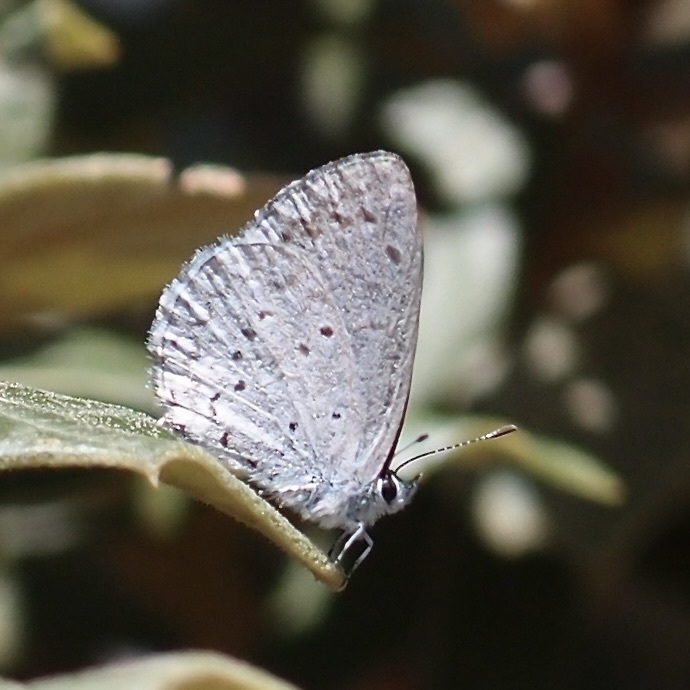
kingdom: Animalia
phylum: Arthropoda
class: Insecta
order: Lepidoptera
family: Lycaenidae
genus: Celastrina
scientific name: Celastrina ladon
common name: Spring azure
